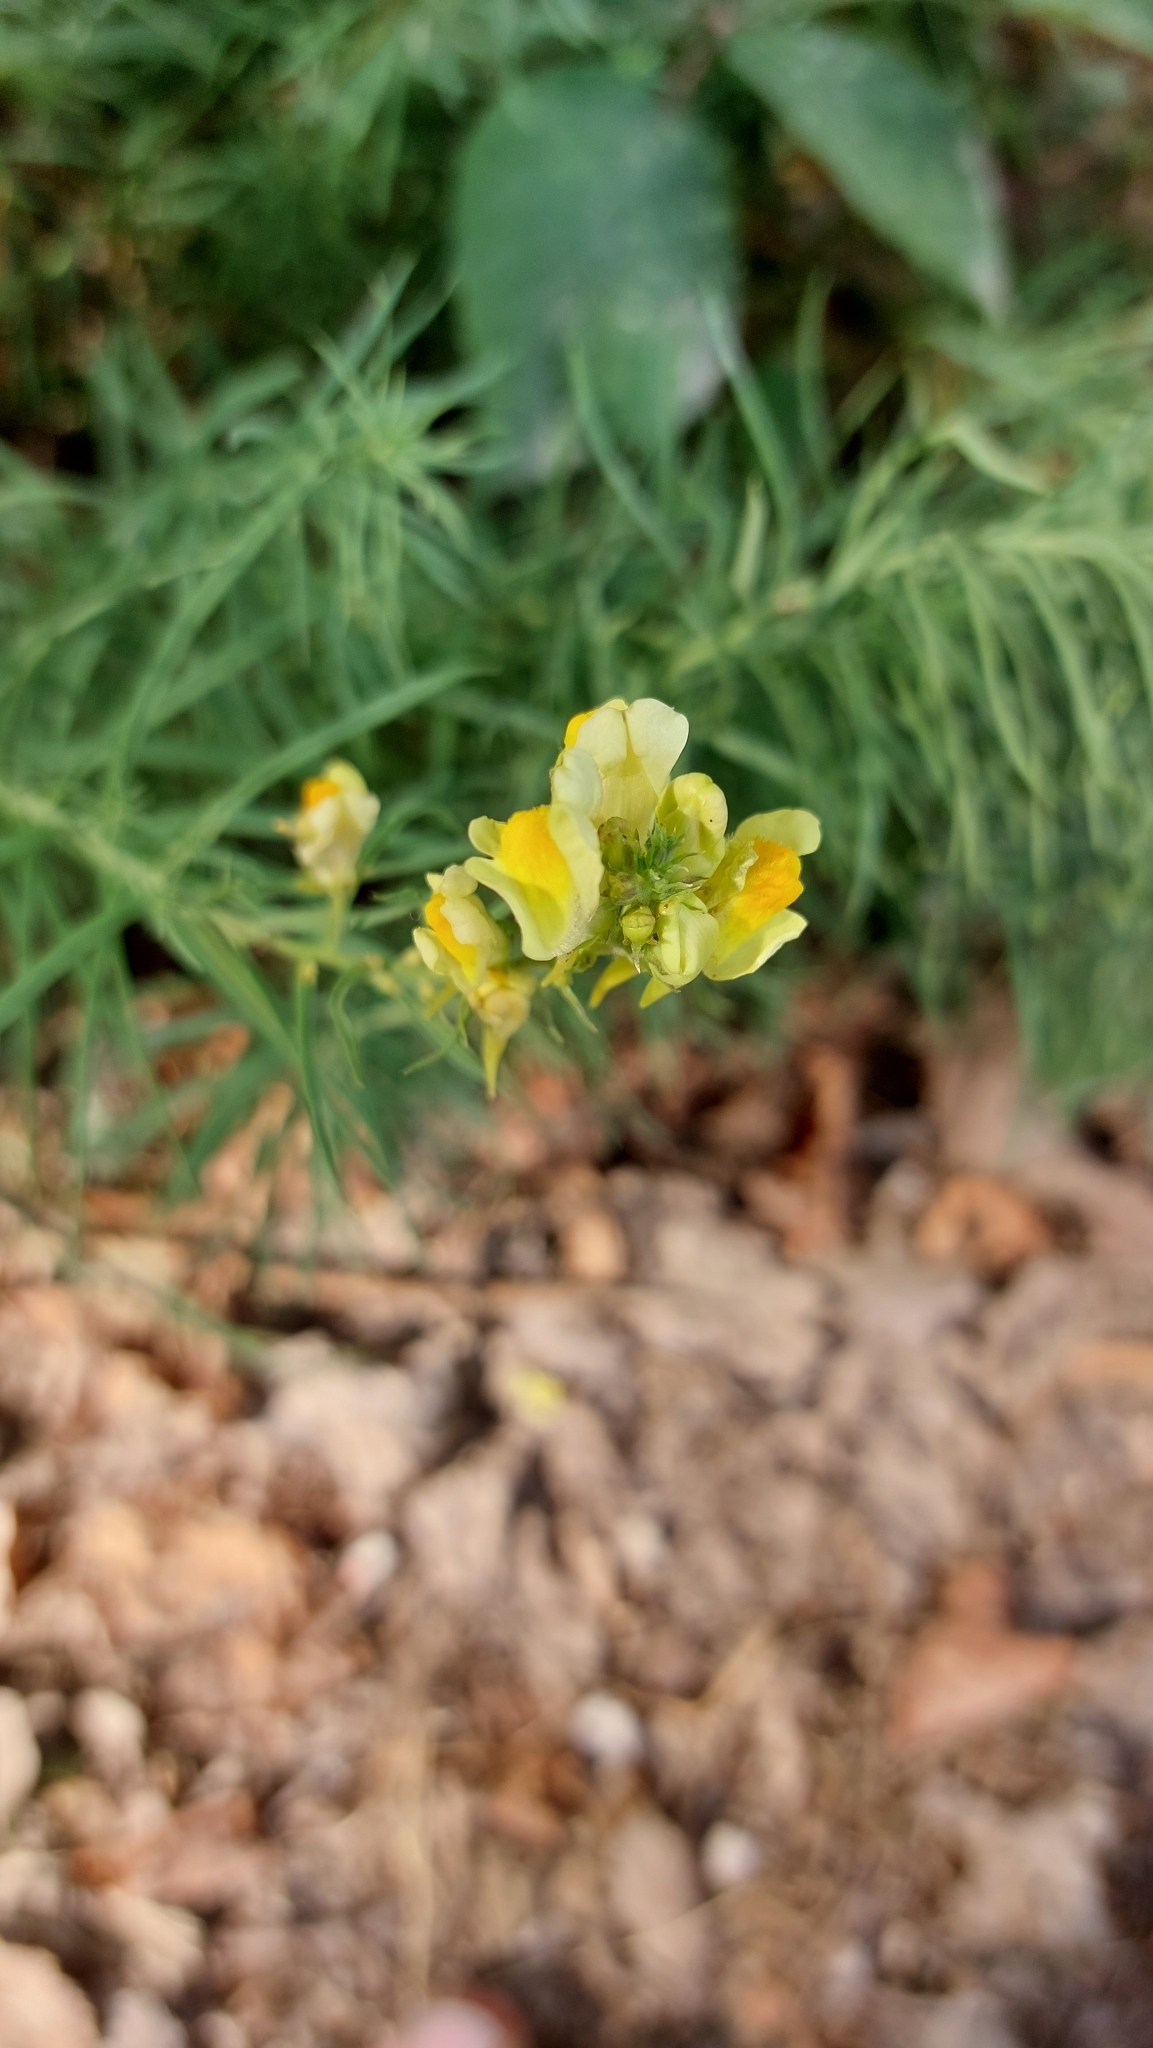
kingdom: Plantae
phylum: Tracheophyta
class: Magnoliopsida
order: Lamiales
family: Plantaginaceae
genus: Linaria
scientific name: Linaria vulgaris
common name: Butter and eggs
